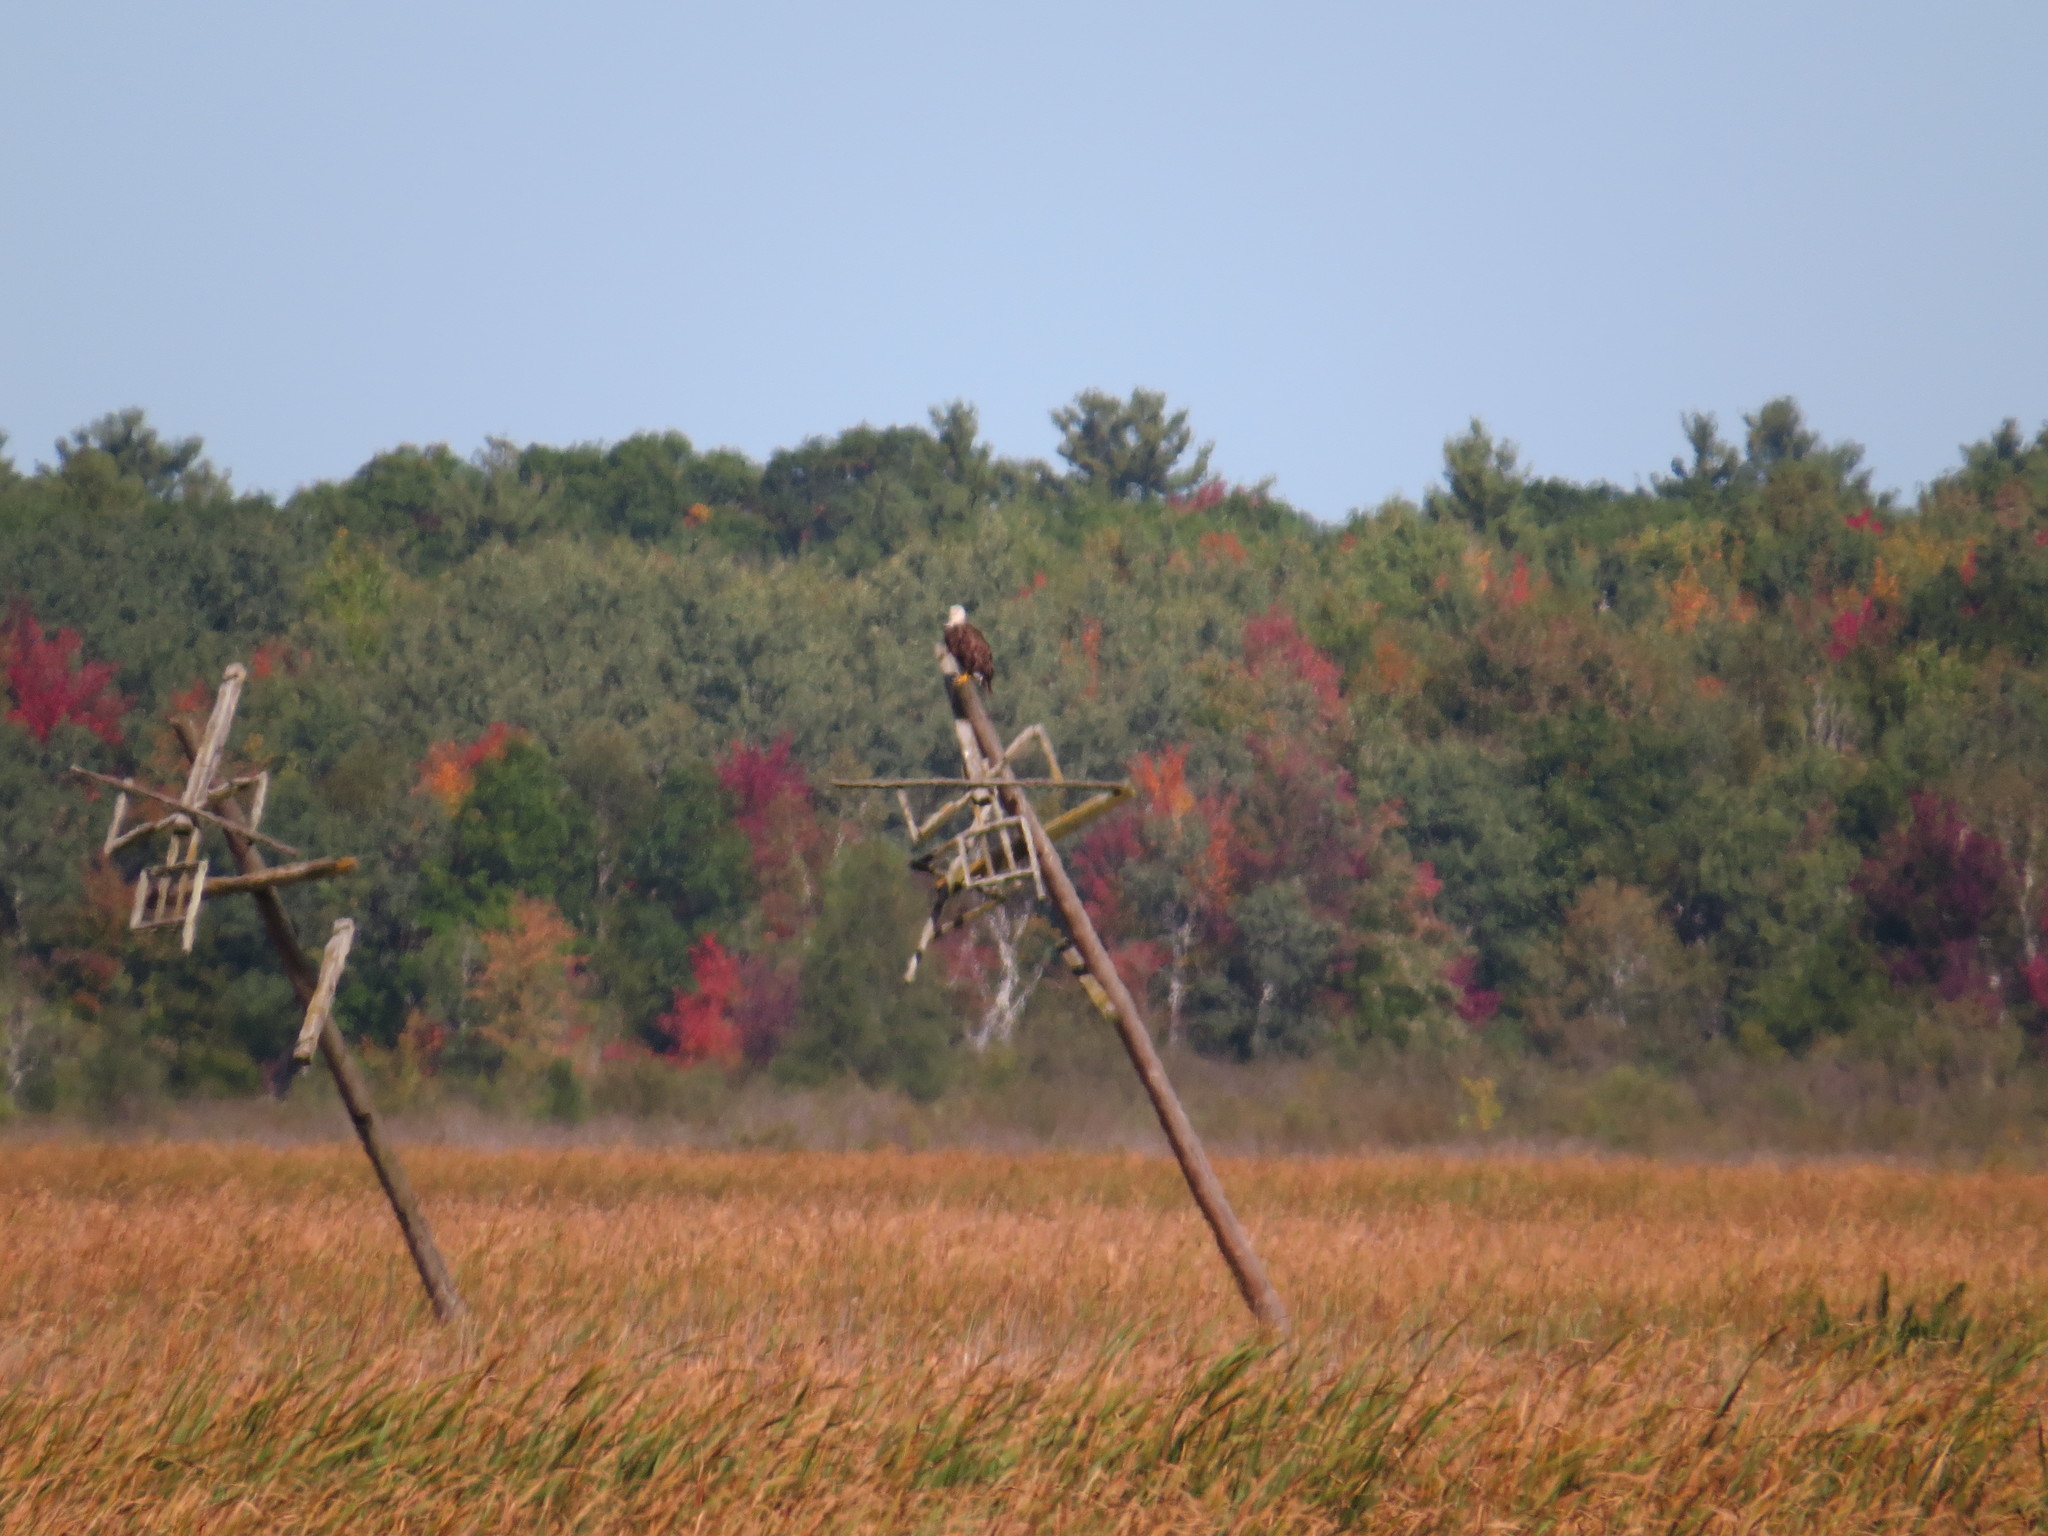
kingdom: Animalia
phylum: Chordata
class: Aves
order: Accipitriformes
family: Accipitridae
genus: Haliaeetus
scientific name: Haliaeetus leucocephalus
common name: Bald eagle
